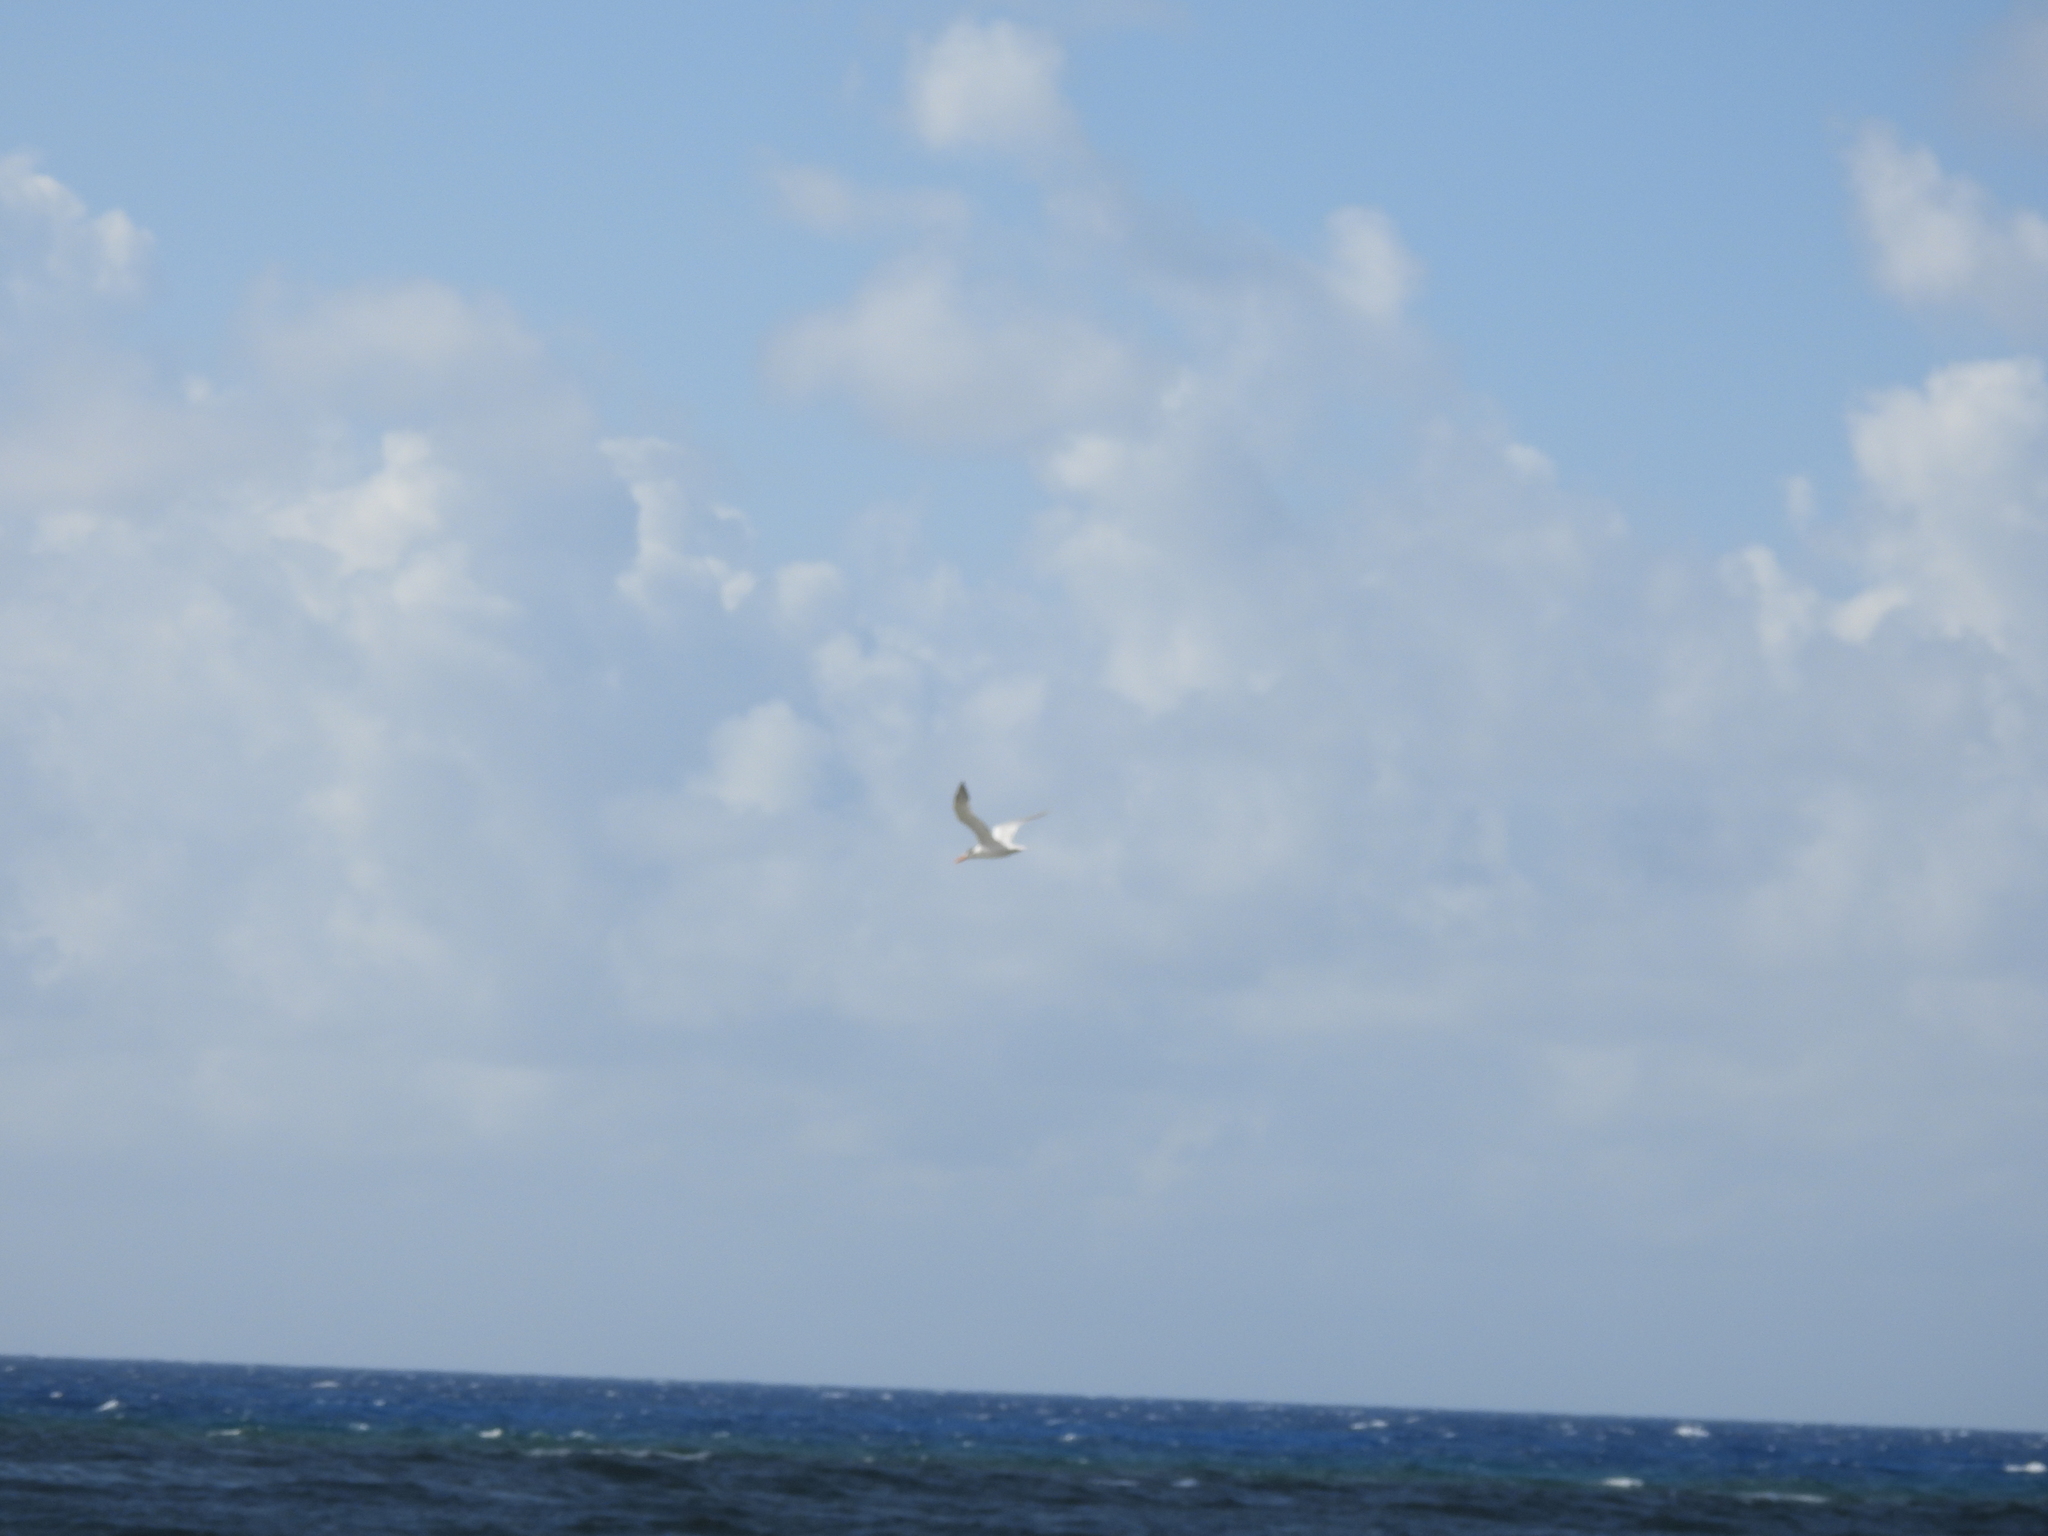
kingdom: Animalia
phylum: Chordata
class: Aves
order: Charadriiformes
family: Laridae
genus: Thalasseus
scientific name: Thalasseus maximus
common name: Royal tern
